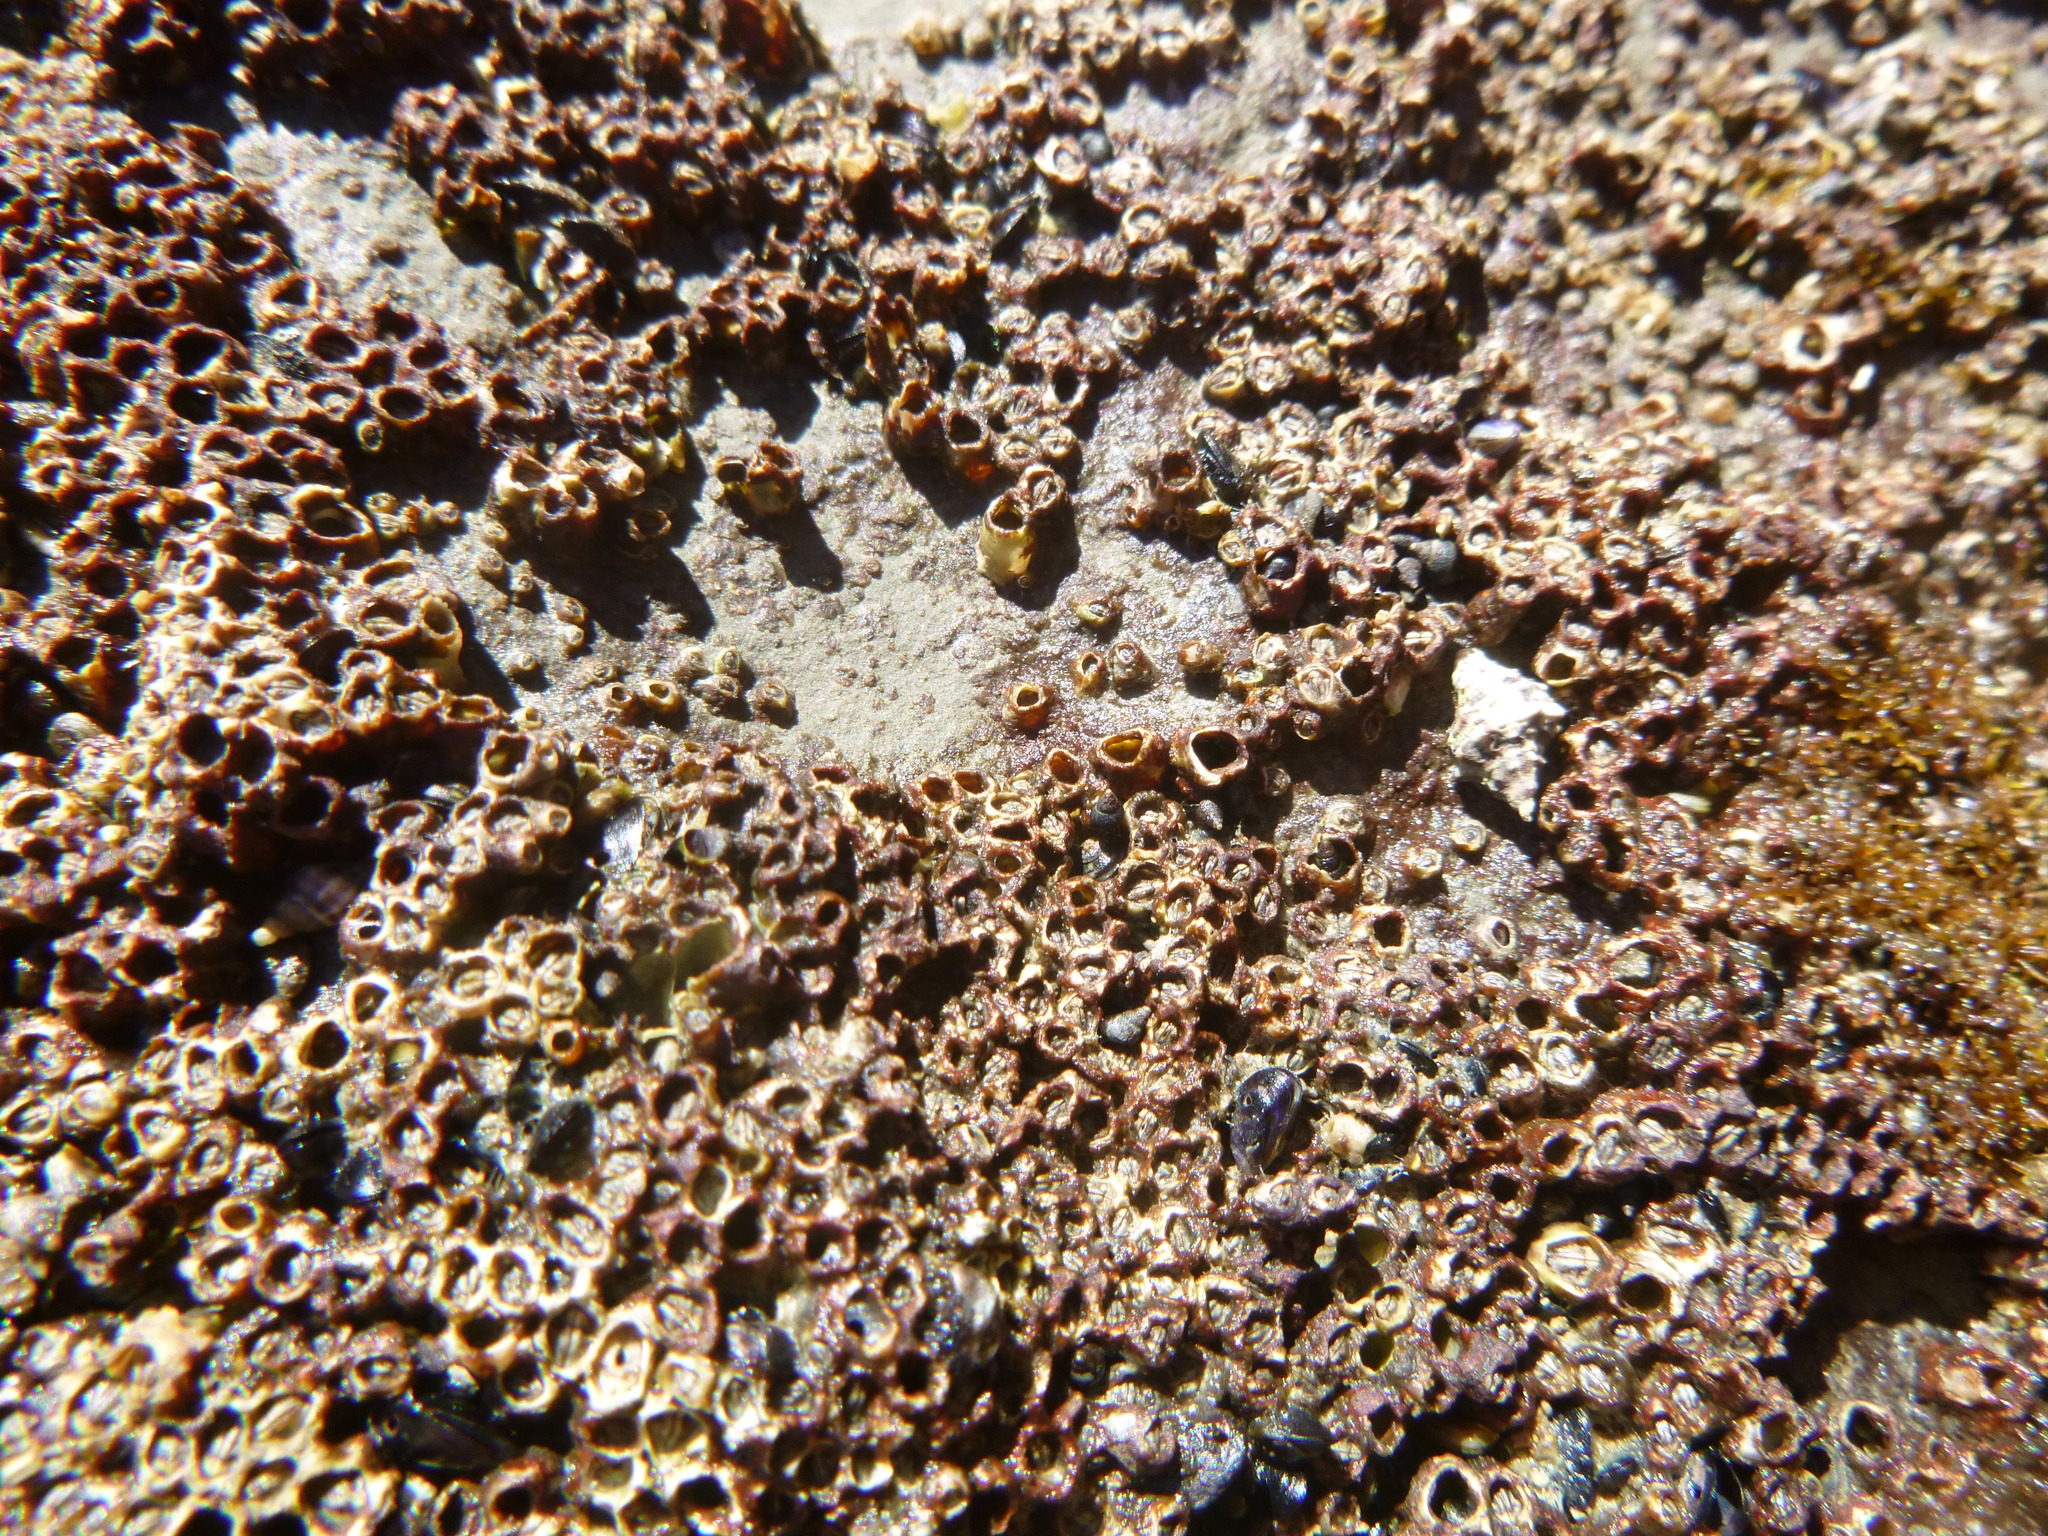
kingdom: Animalia
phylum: Arthropoda
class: Maxillopoda
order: Sessilia
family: Chthamalidae
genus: Chamaesipho
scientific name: Chamaesipho columna
